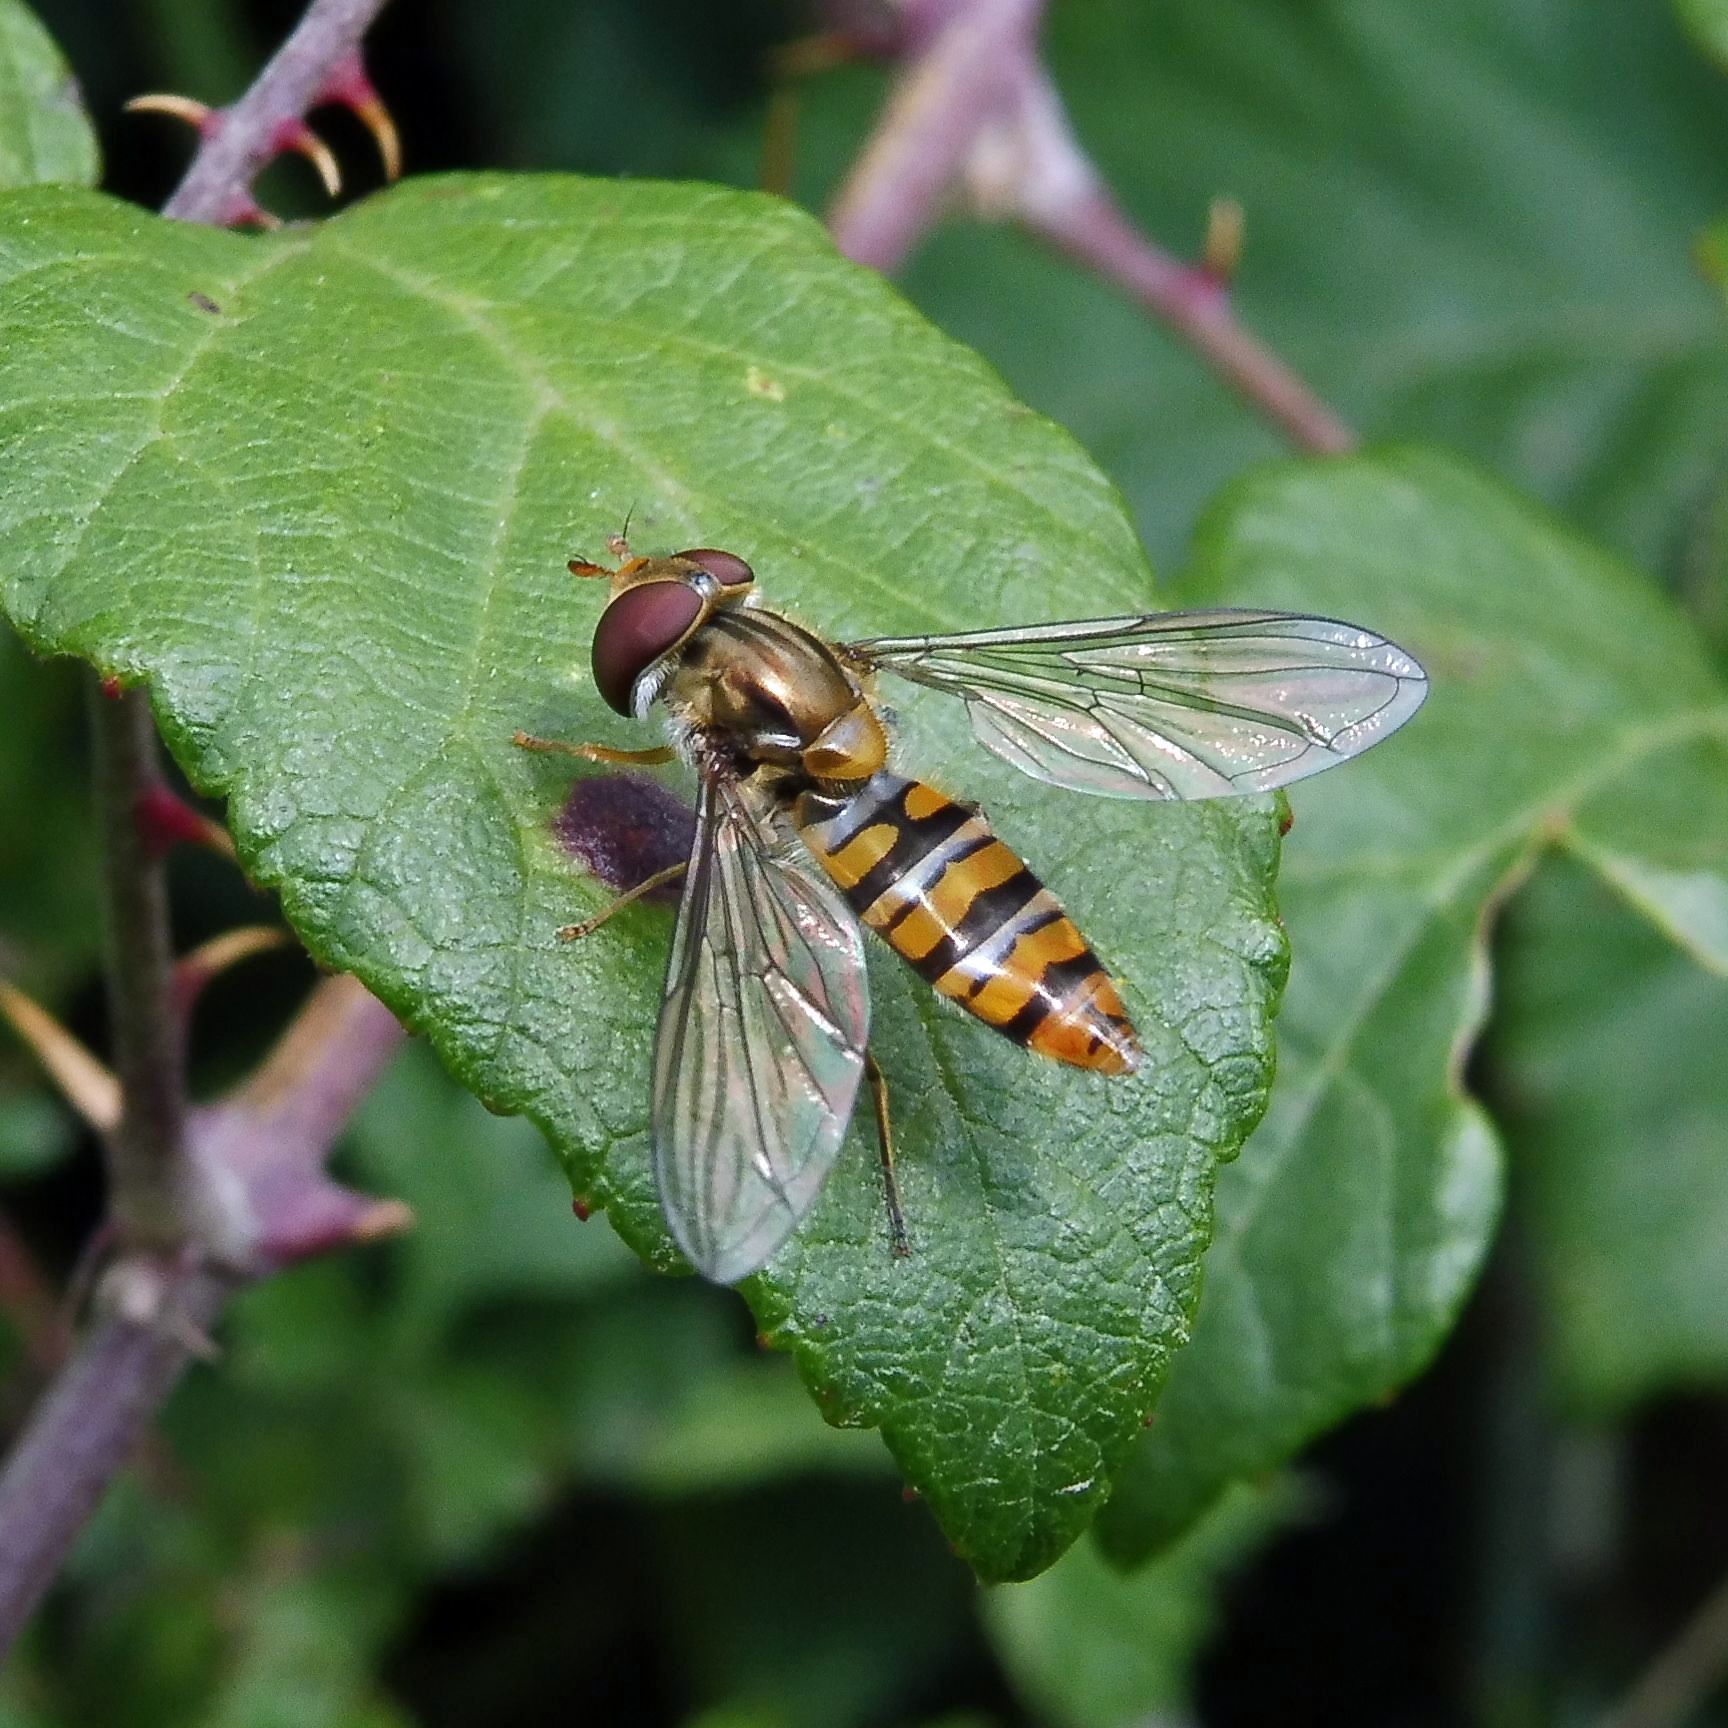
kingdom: Animalia
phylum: Arthropoda
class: Insecta
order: Diptera
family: Syrphidae
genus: Episyrphus
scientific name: Episyrphus balteatus
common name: Marmalade hoverfly
